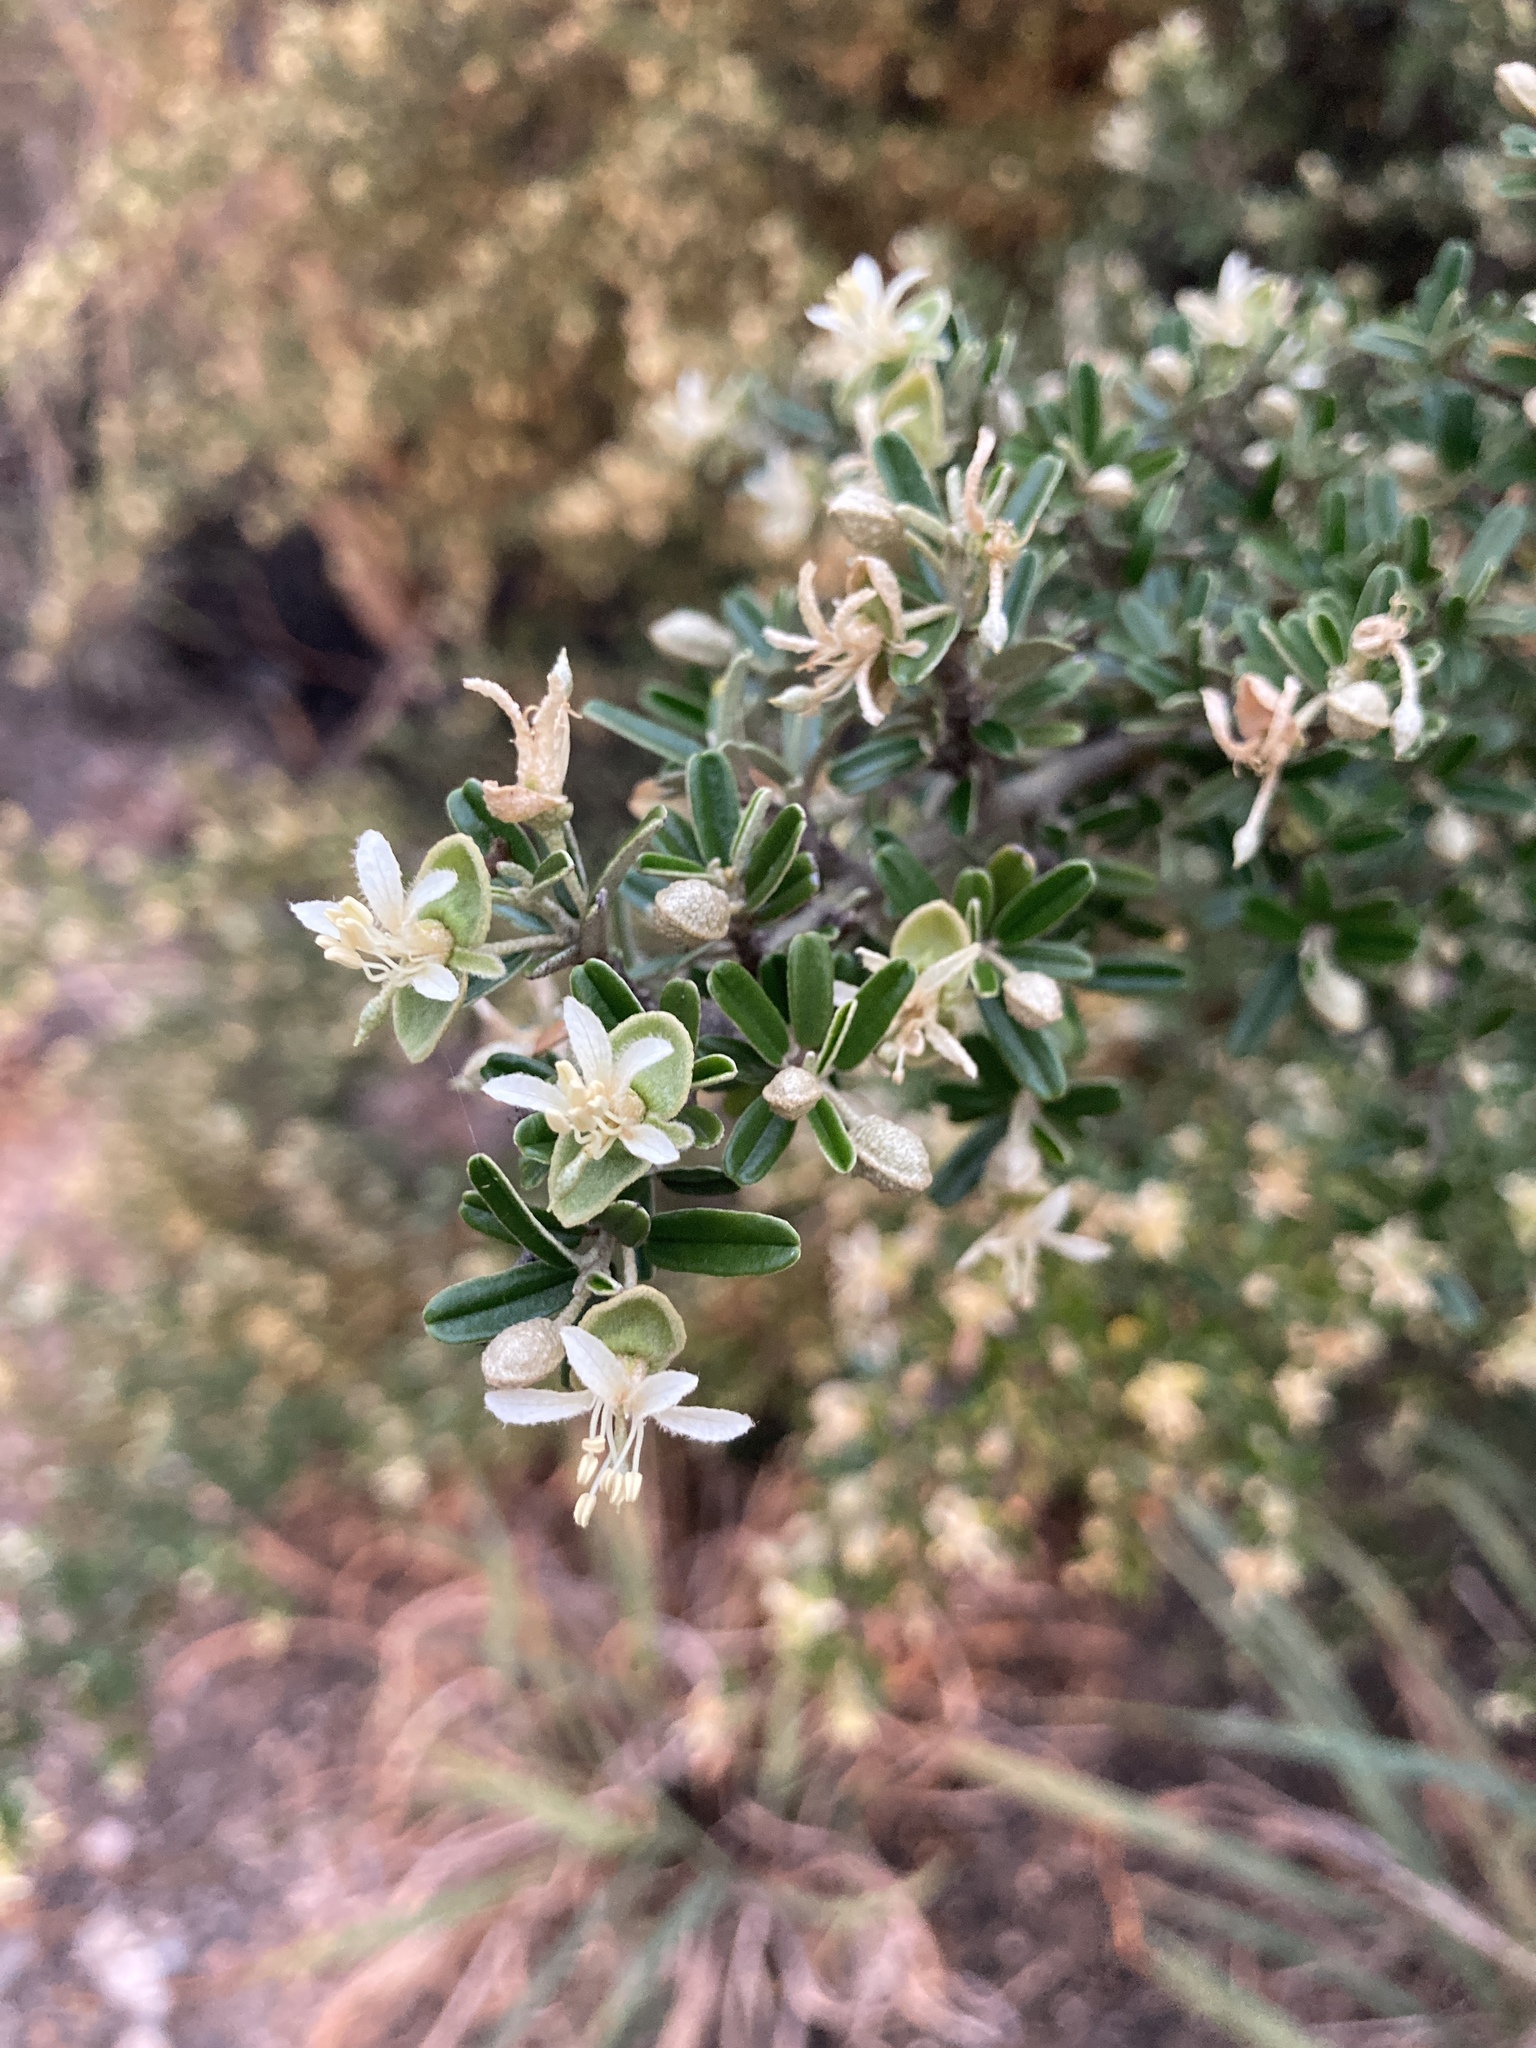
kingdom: Plantae
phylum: Tracheophyta
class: Magnoliopsida
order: Brassicales
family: Capparaceae
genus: Atamisquea
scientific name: Atamisquea emarginata
